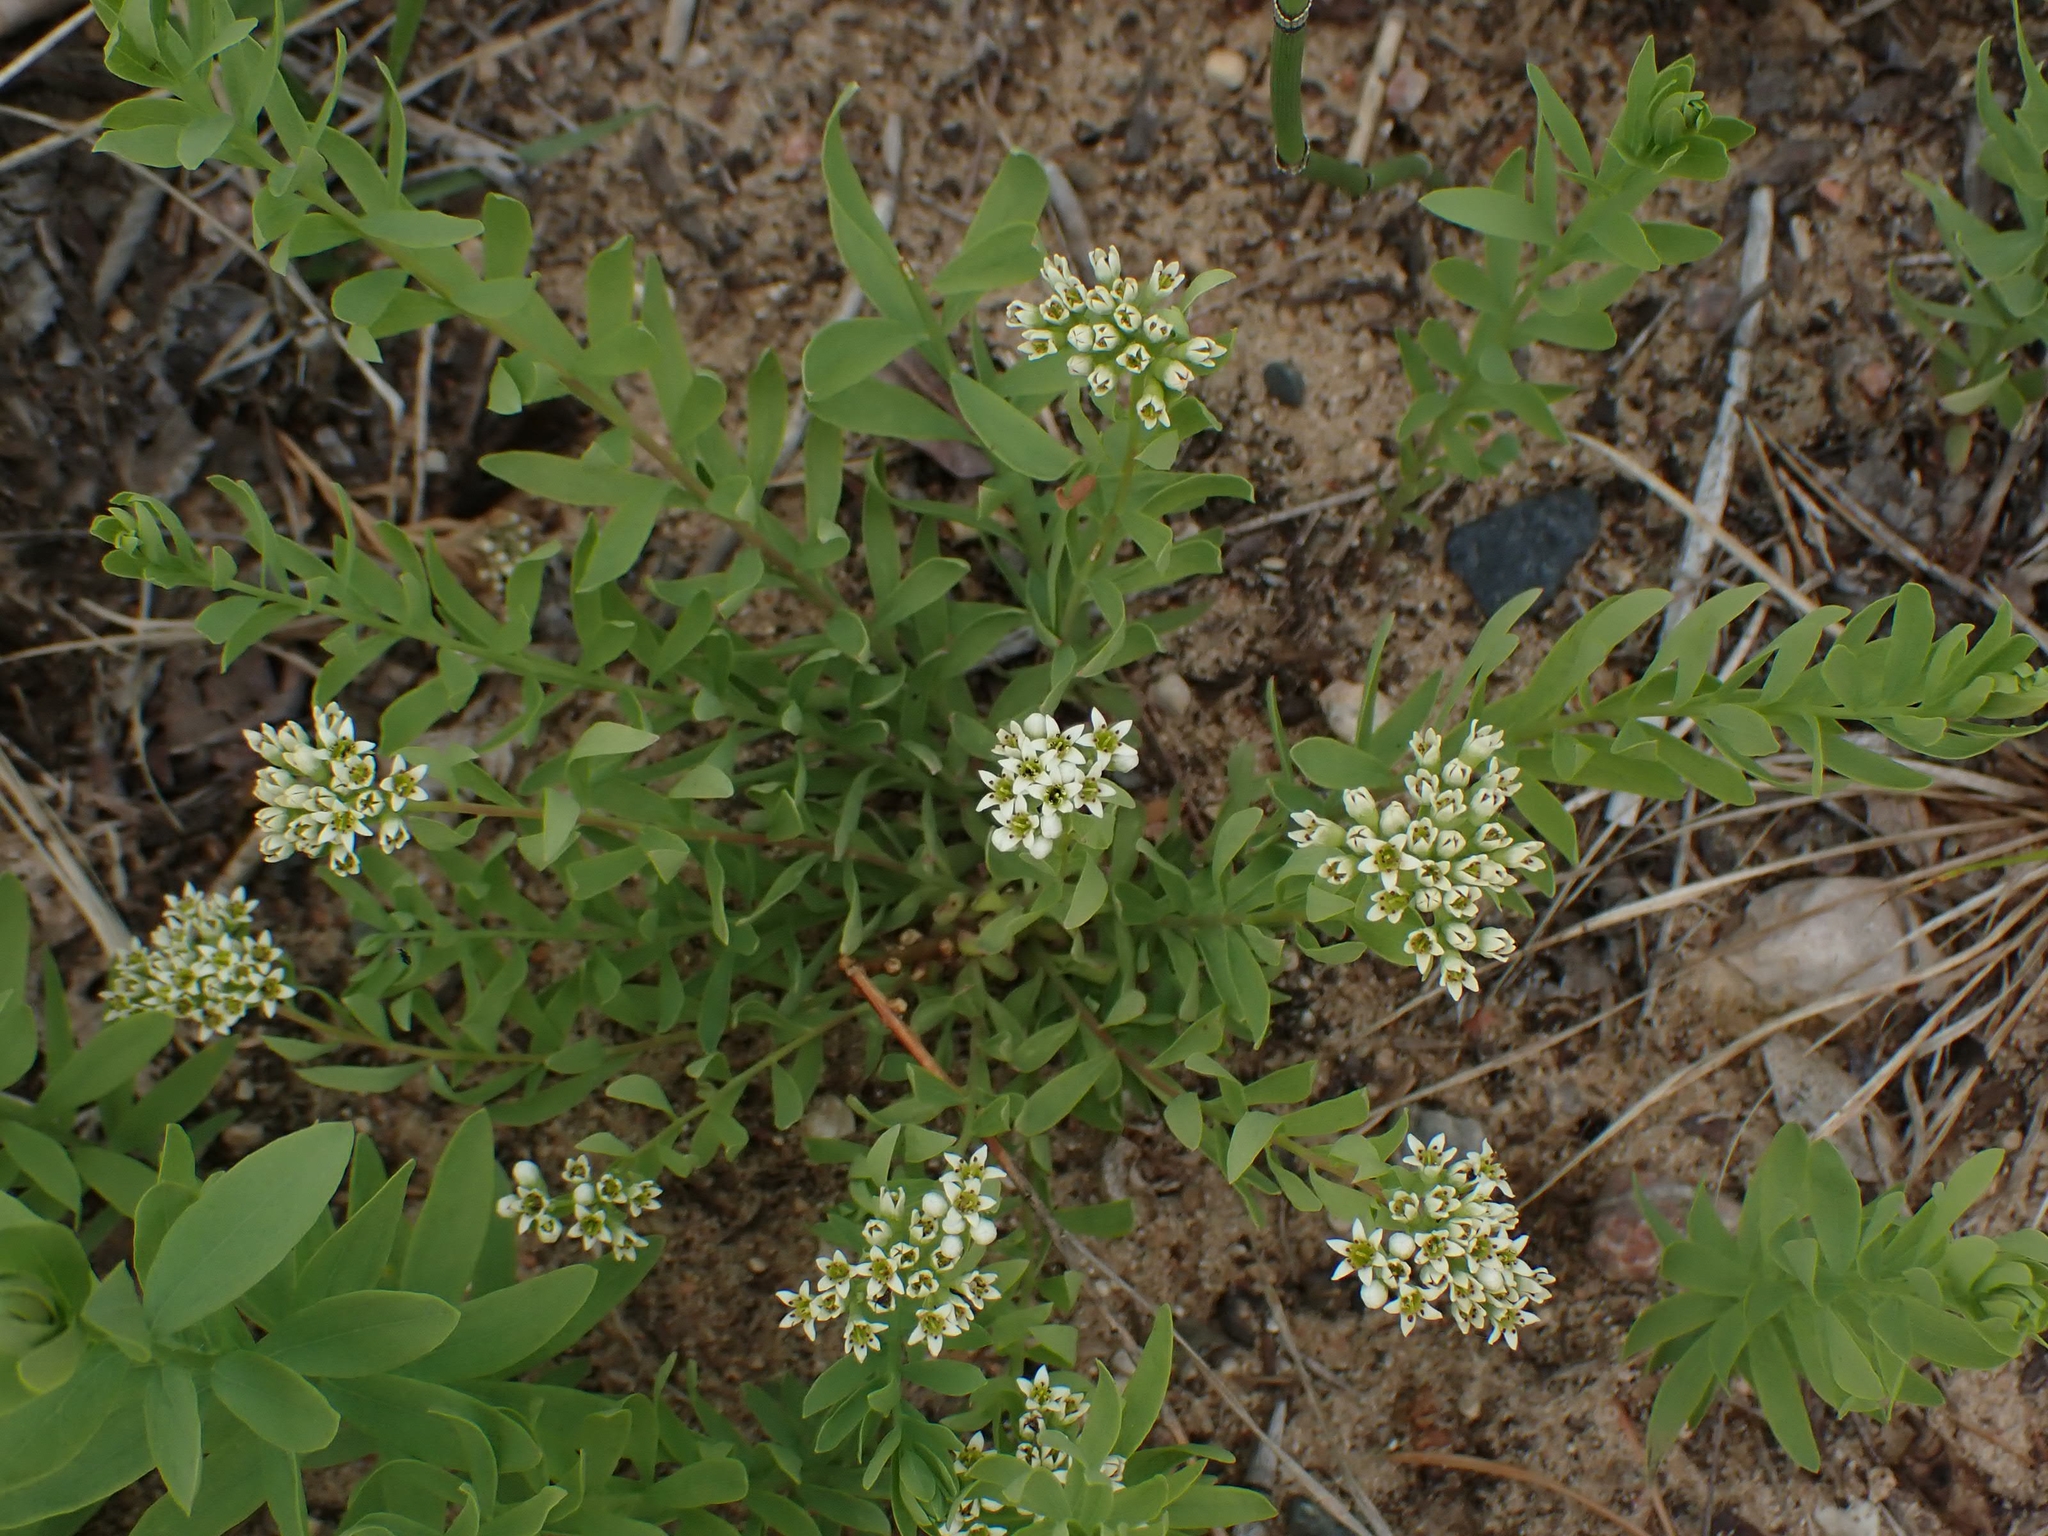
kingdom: Plantae
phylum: Tracheophyta
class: Magnoliopsida
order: Santalales
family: Comandraceae
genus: Comandra
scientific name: Comandra umbellata
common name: Bastard toadflax
